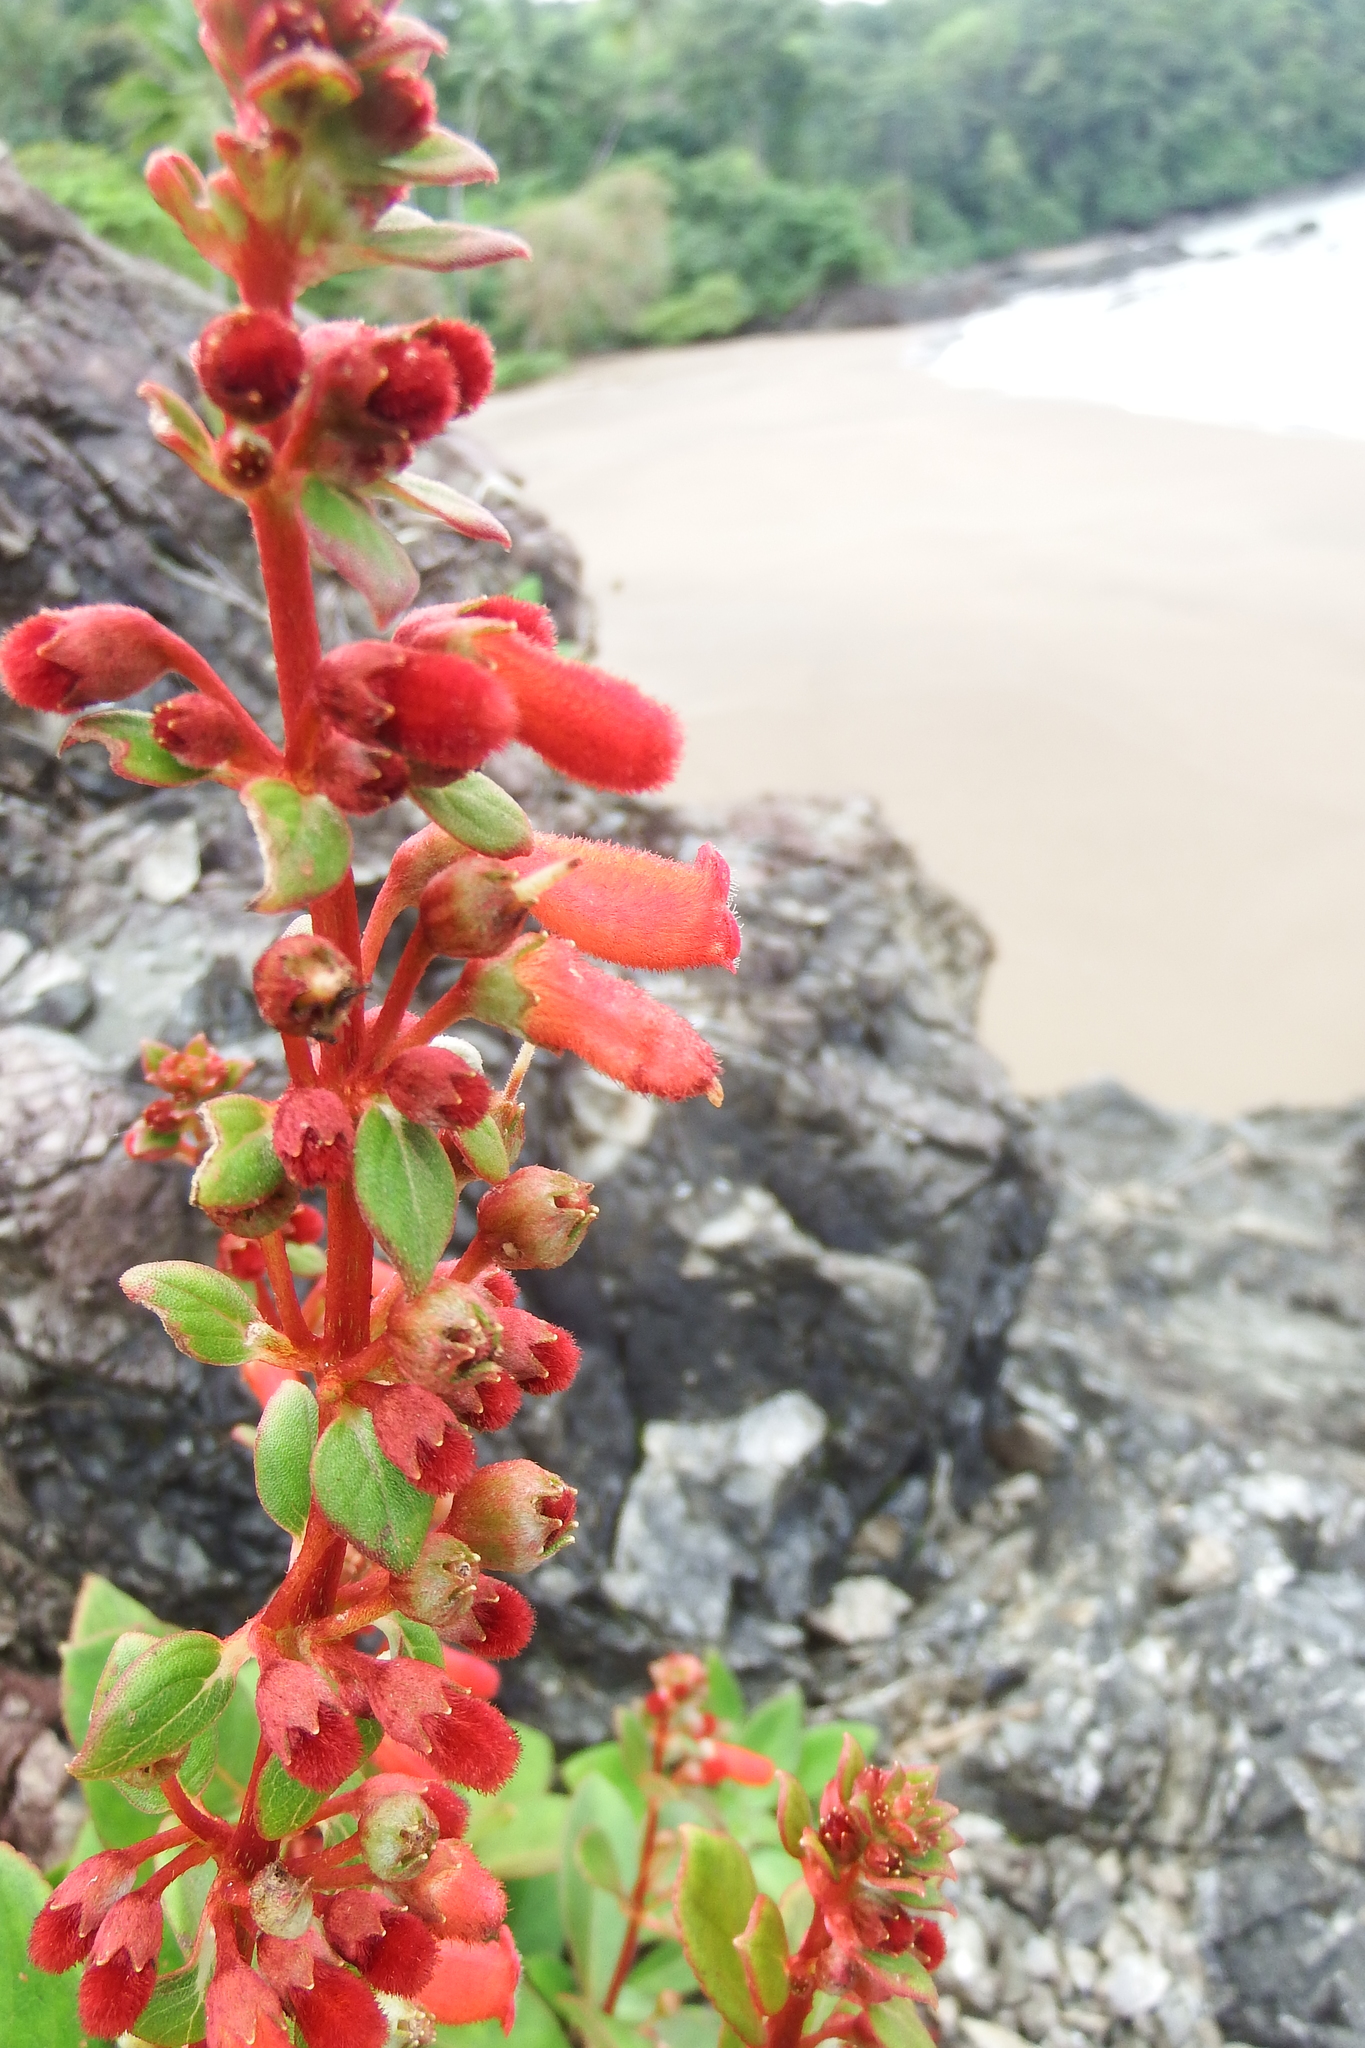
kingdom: Plantae
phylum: Tracheophyta
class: Magnoliopsida
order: Lamiales
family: Gesneriaceae
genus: Kohleria
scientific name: Kohleria spicata
